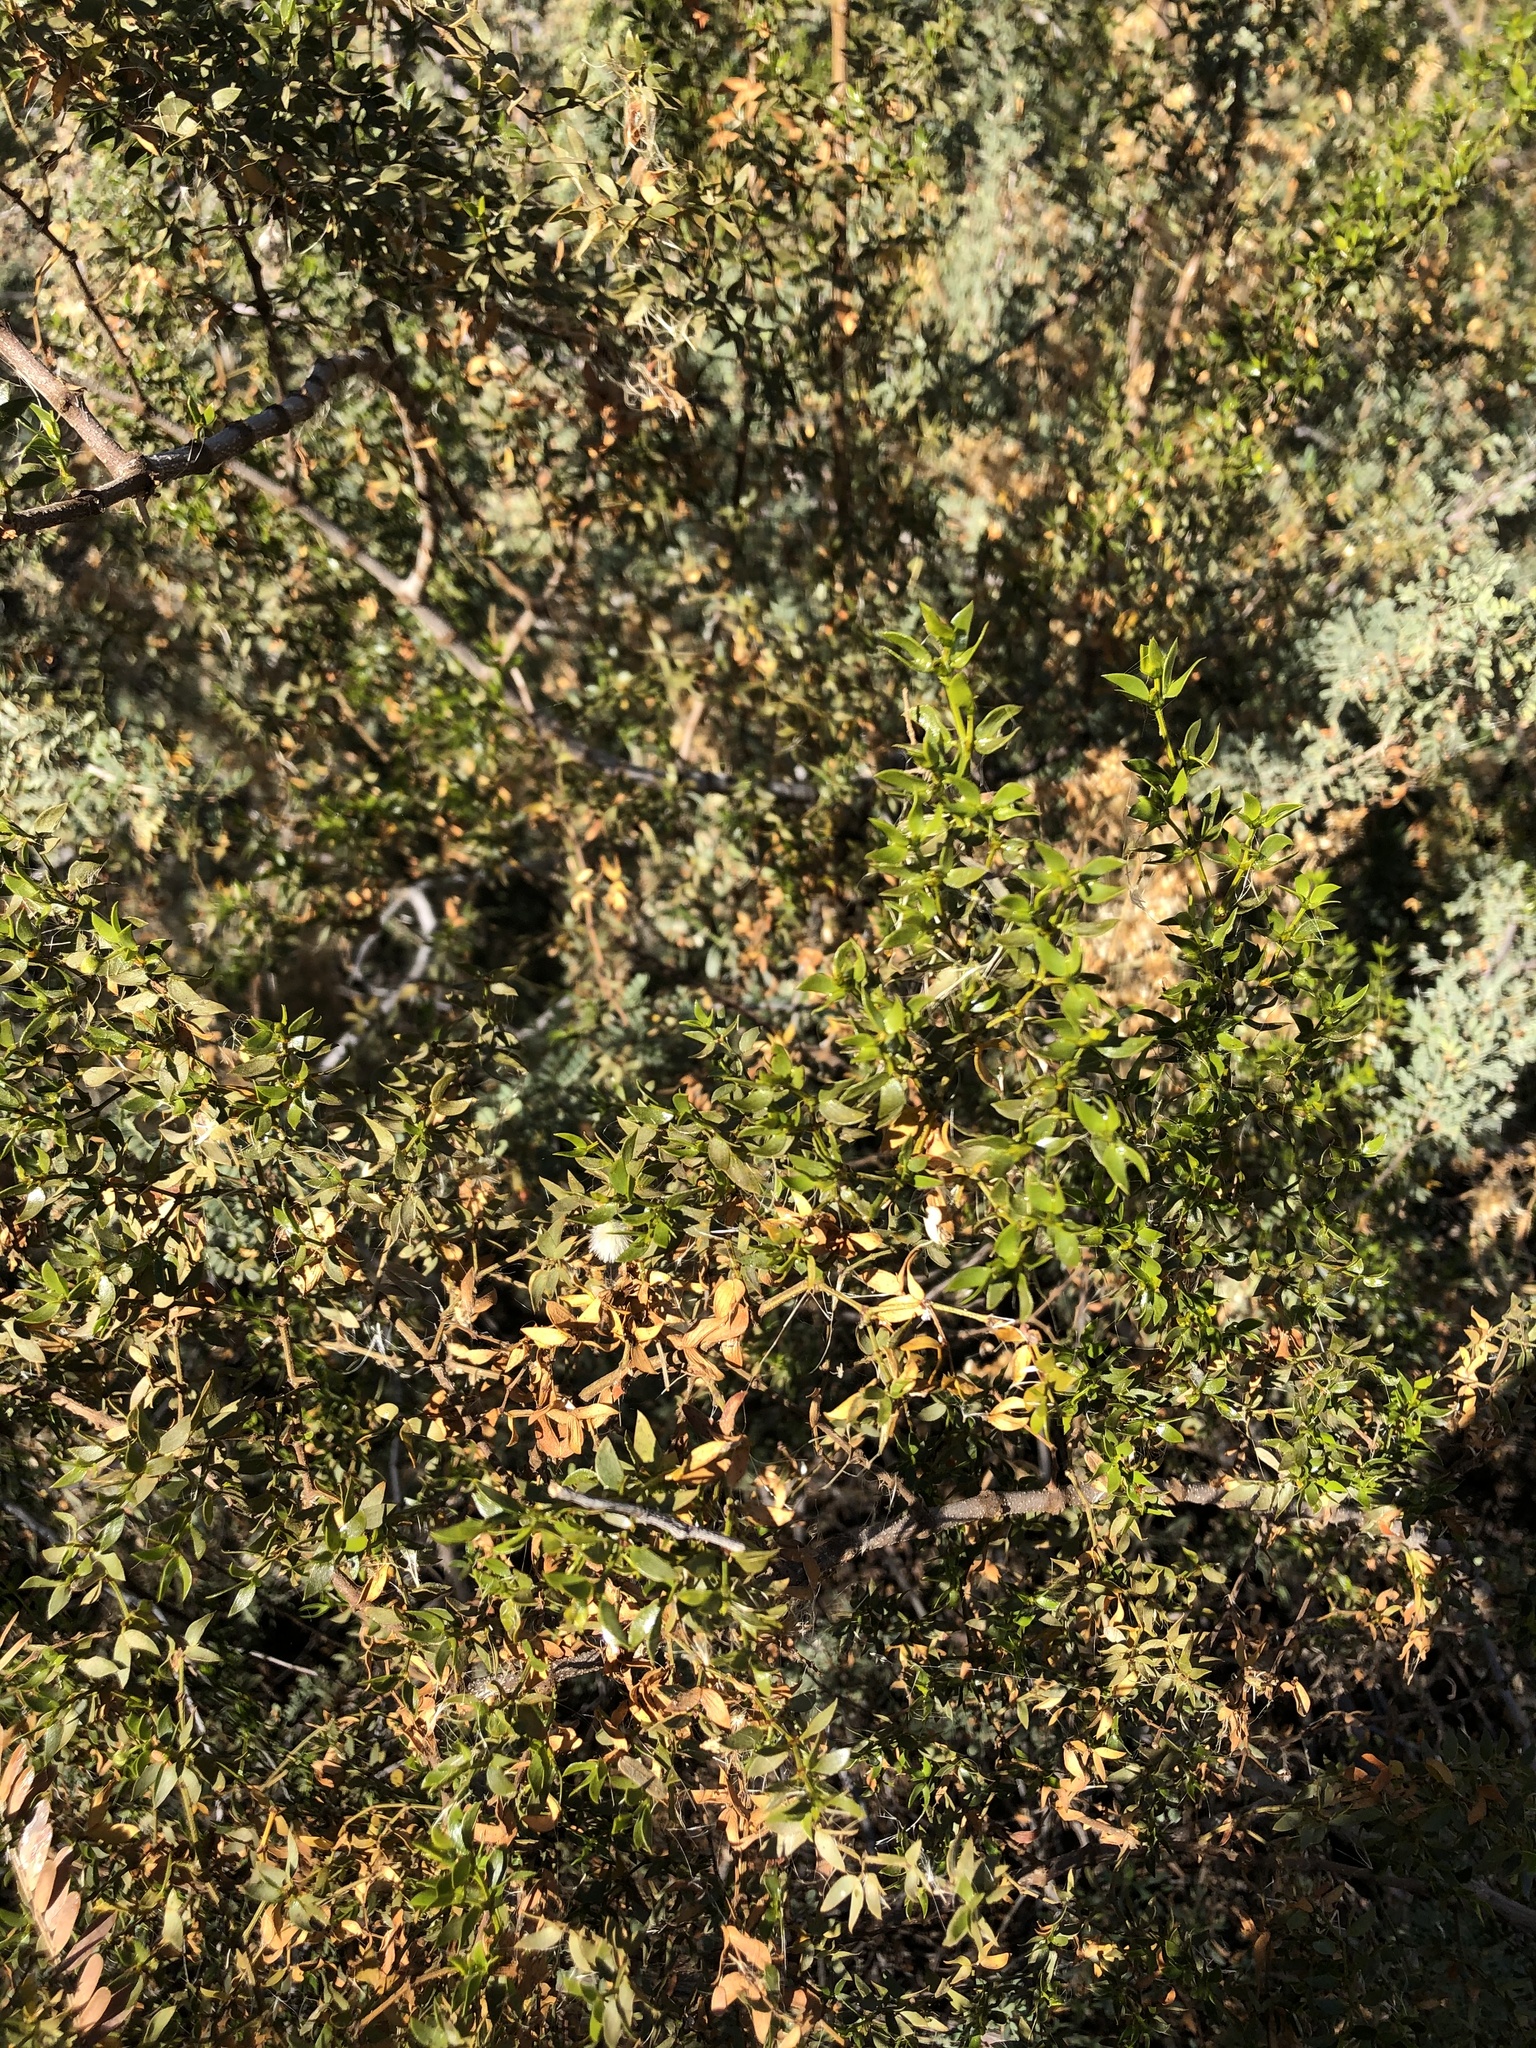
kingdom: Plantae
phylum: Tracheophyta
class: Magnoliopsida
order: Zygophyllales
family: Zygophyllaceae
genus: Larrea
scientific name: Larrea tridentata
